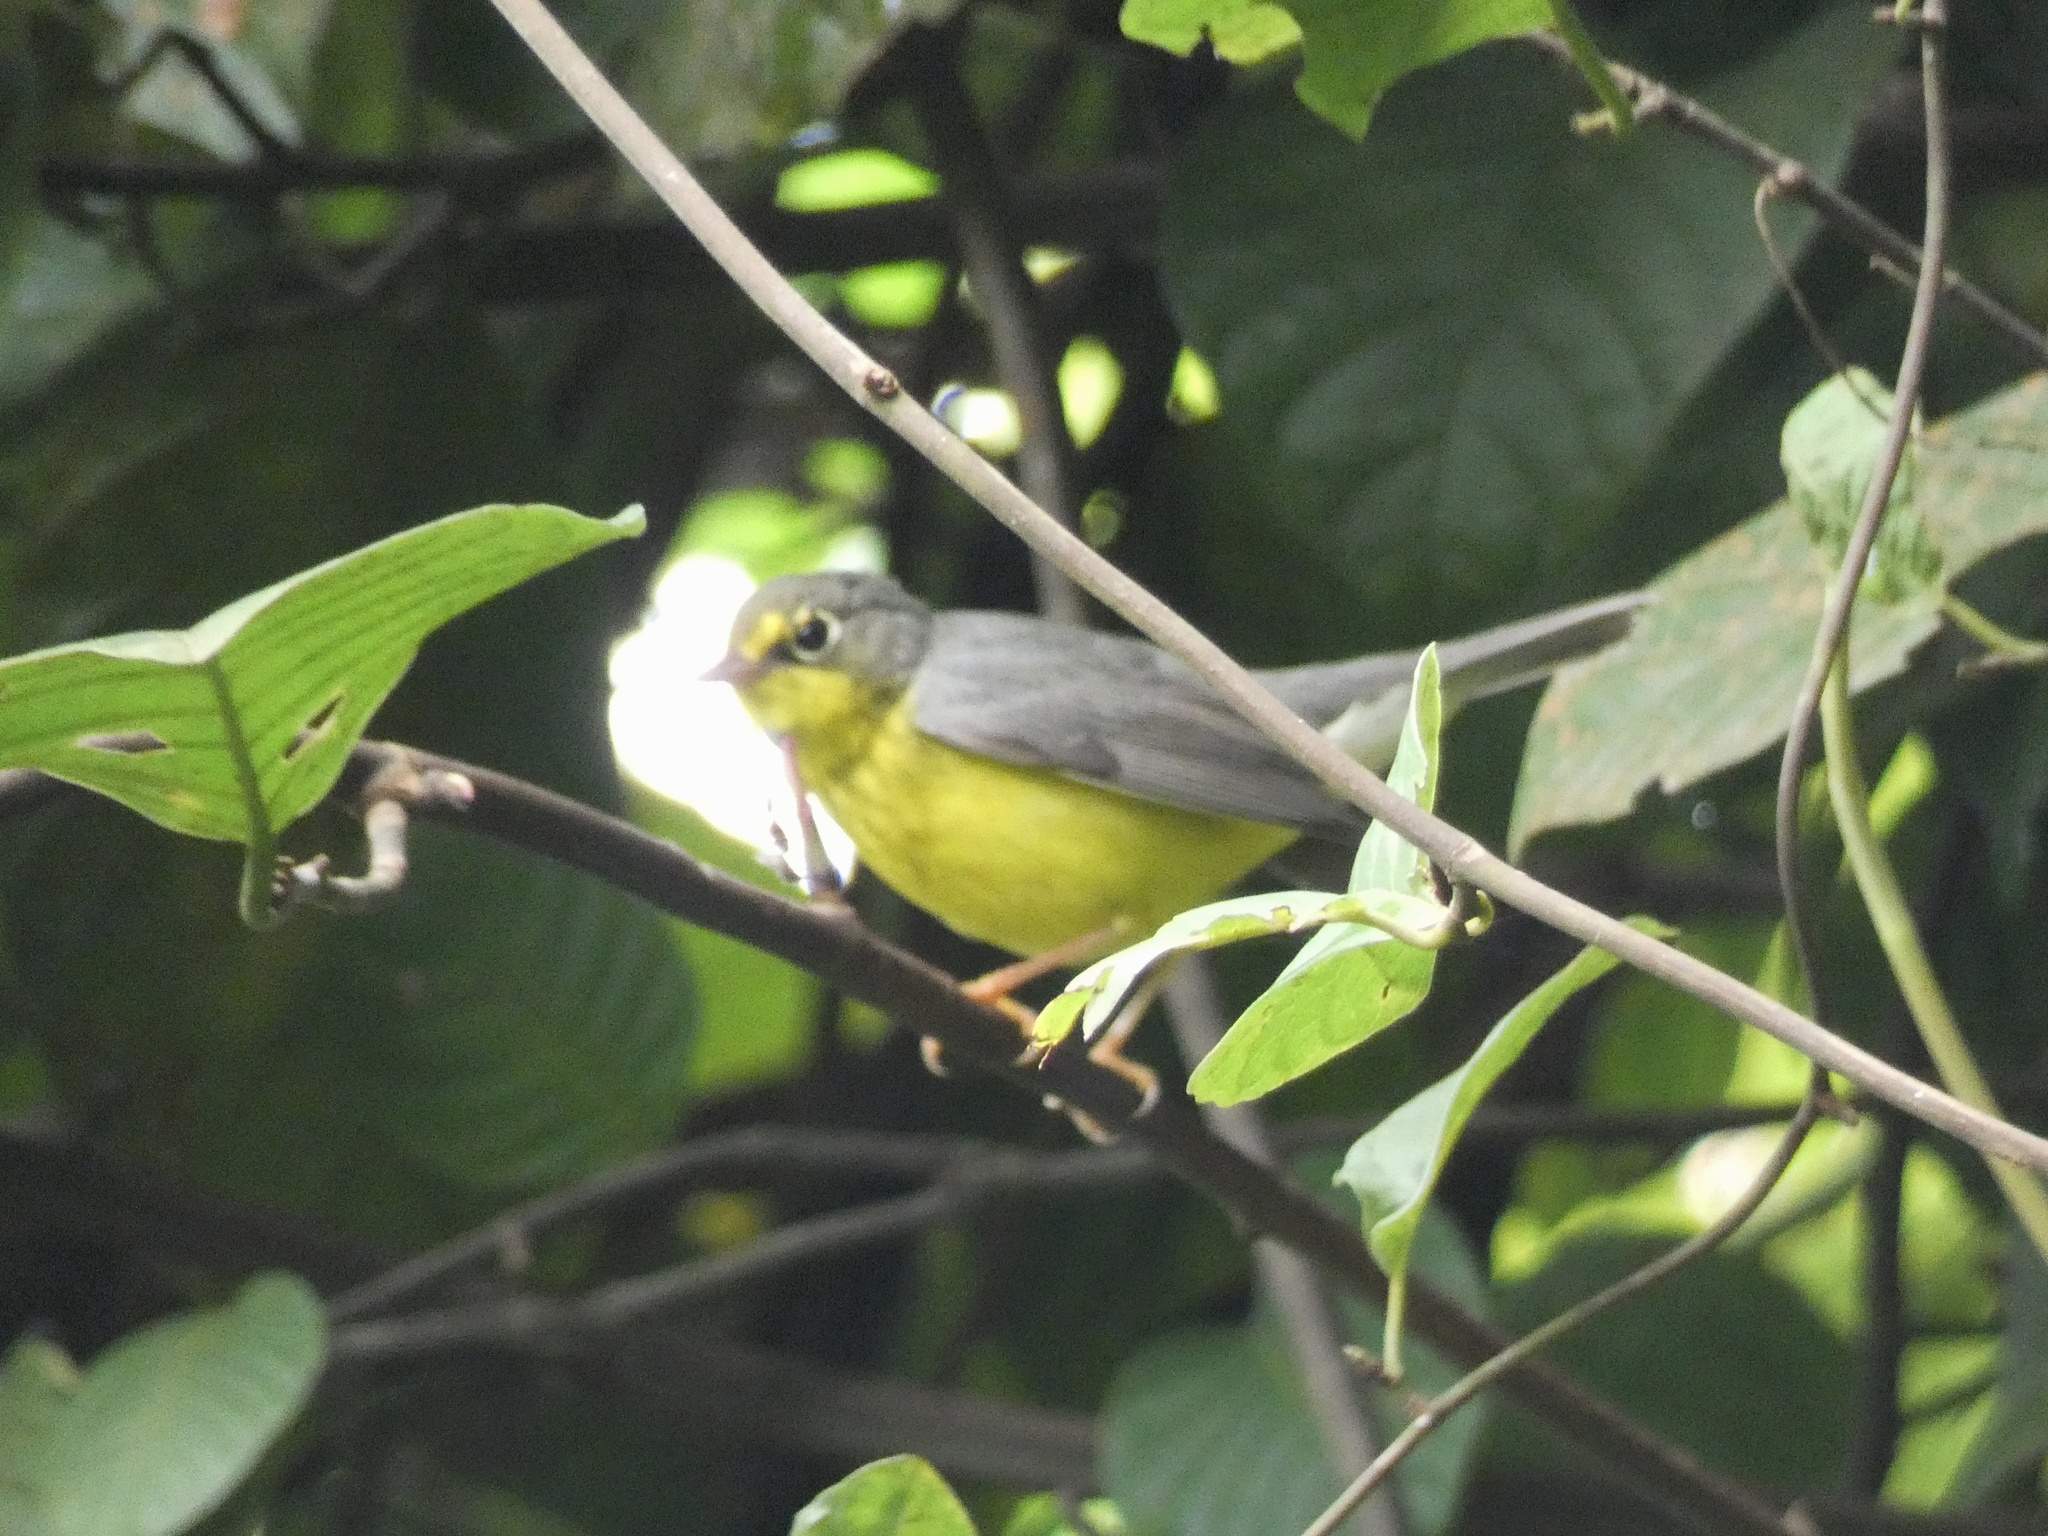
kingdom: Animalia
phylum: Chordata
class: Aves
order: Passeriformes
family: Parulidae
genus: Cardellina
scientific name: Cardellina canadensis
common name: Canada warbler
